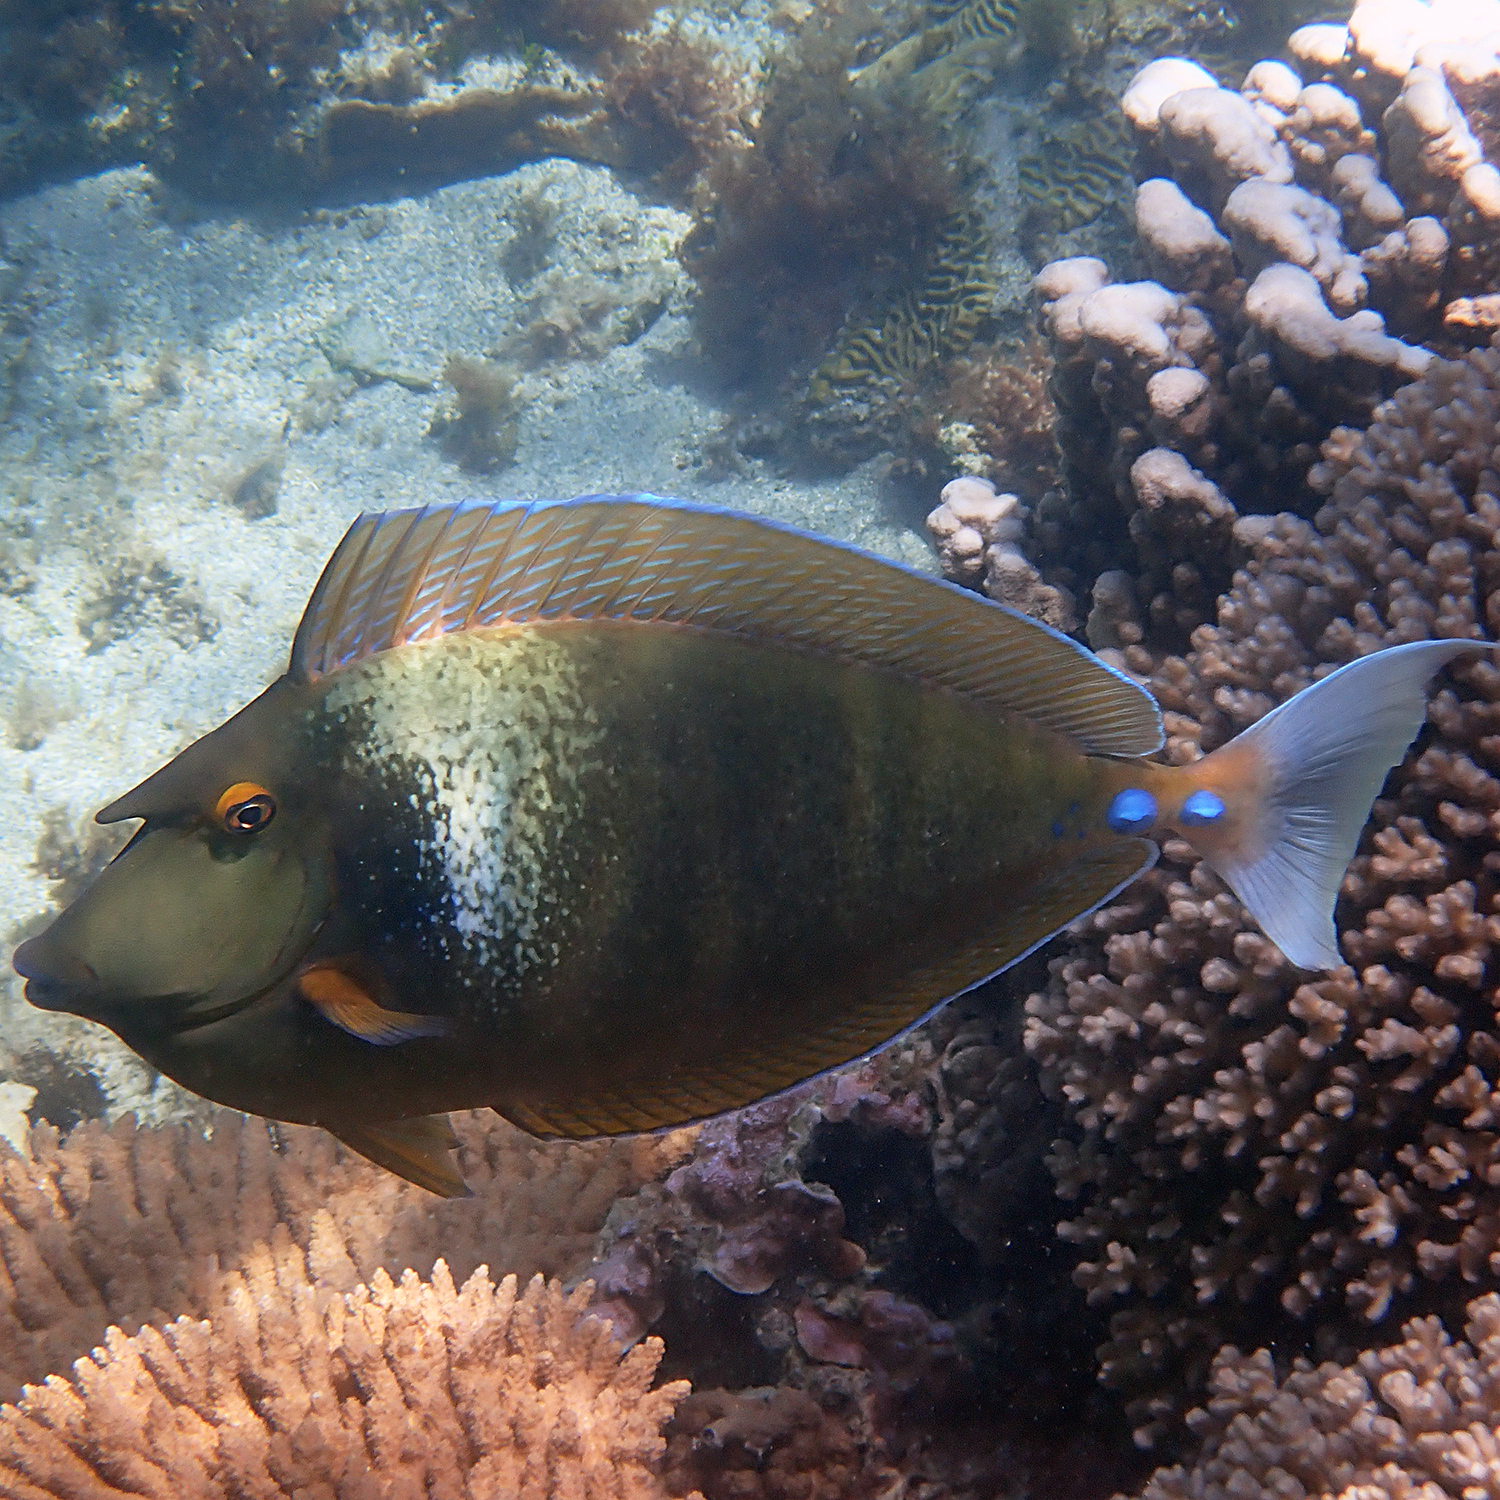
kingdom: Animalia
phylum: Chordata
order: Perciformes
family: Acanthuridae
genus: Naso
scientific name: Naso unicornis
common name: Bluespine unicornfish
